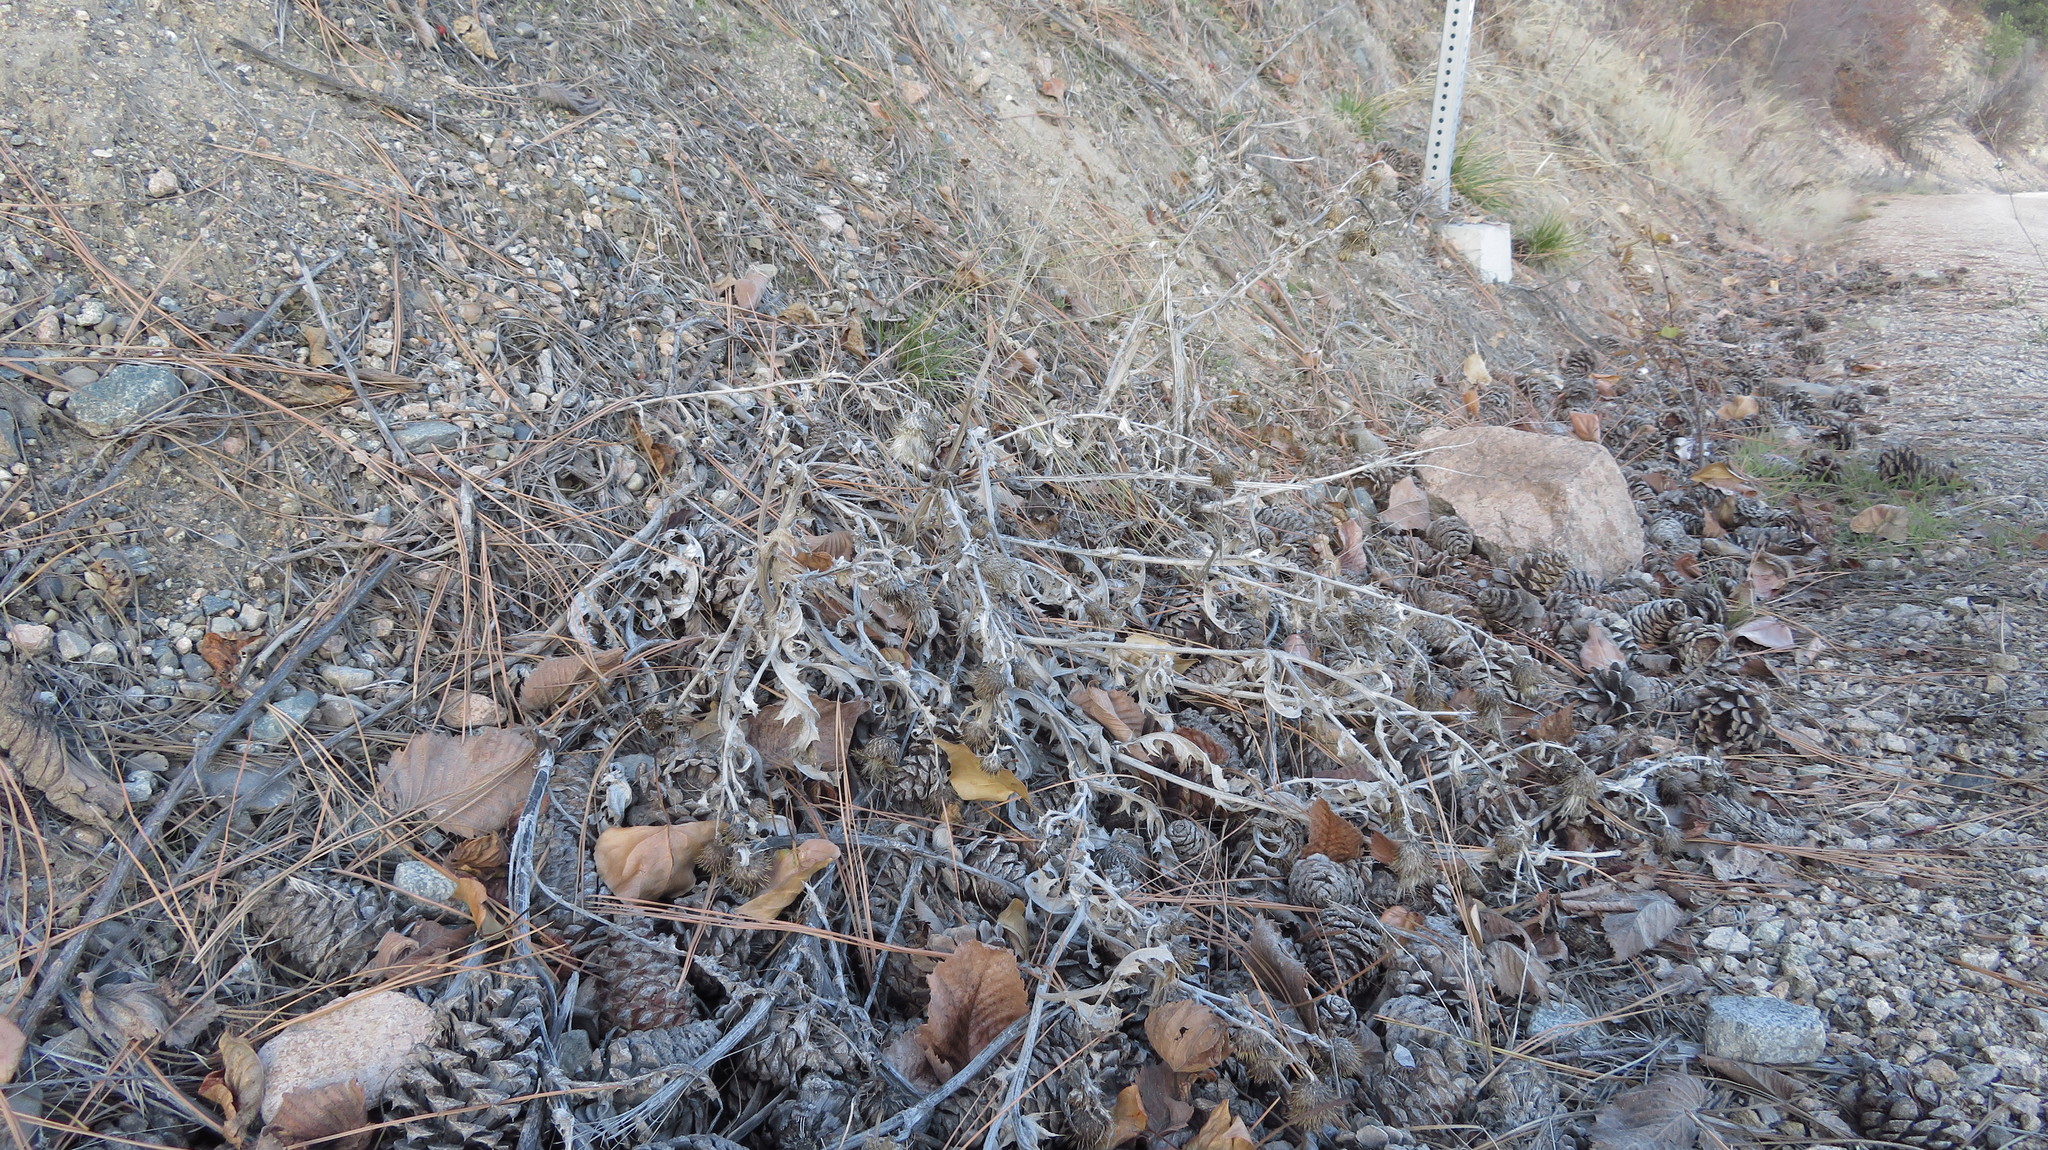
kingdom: Plantae
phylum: Tracheophyta
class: Magnoliopsida
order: Asterales
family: Asteraceae
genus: Cirsium
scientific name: Cirsium undulatum
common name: Pasture thistle
